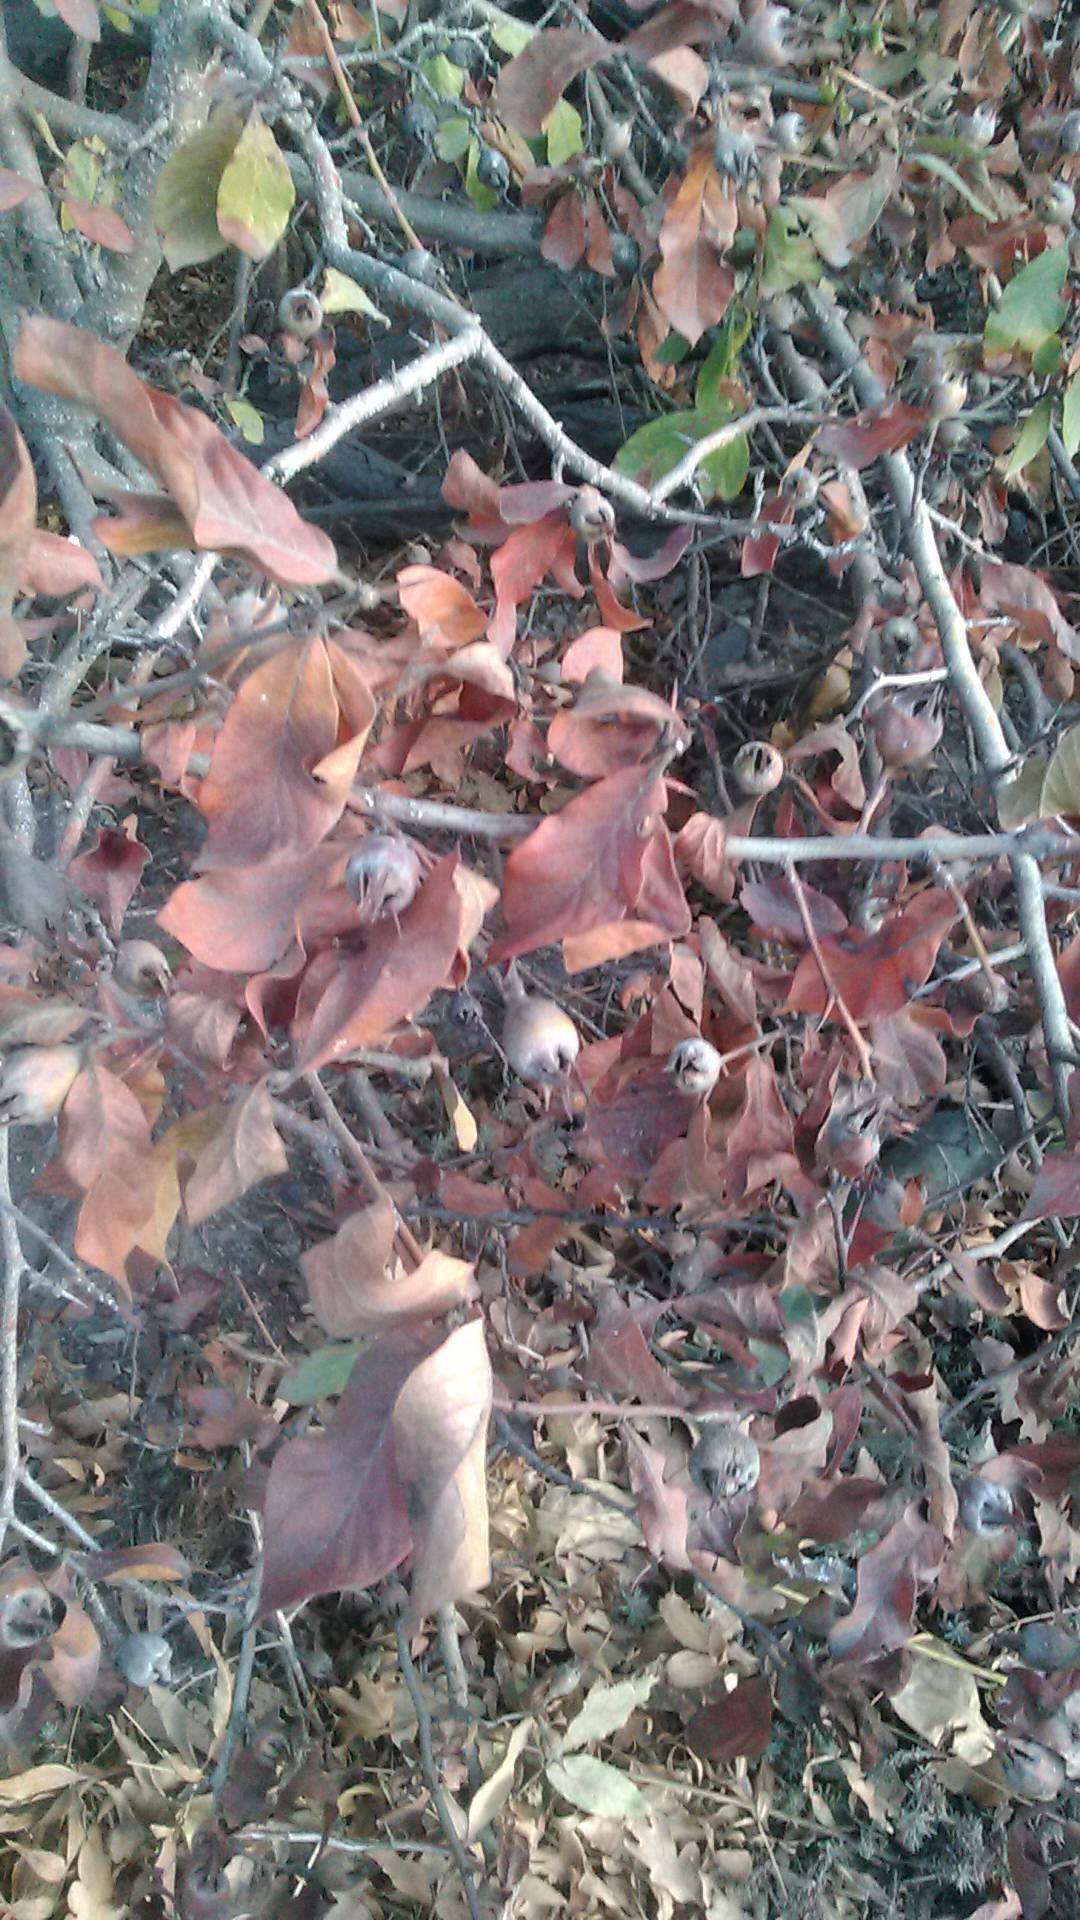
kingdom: Plantae
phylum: Tracheophyta
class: Magnoliopsida
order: Rosales
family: Rosaceae
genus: Mespilus
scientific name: Mespilus germanica
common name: Medlar
